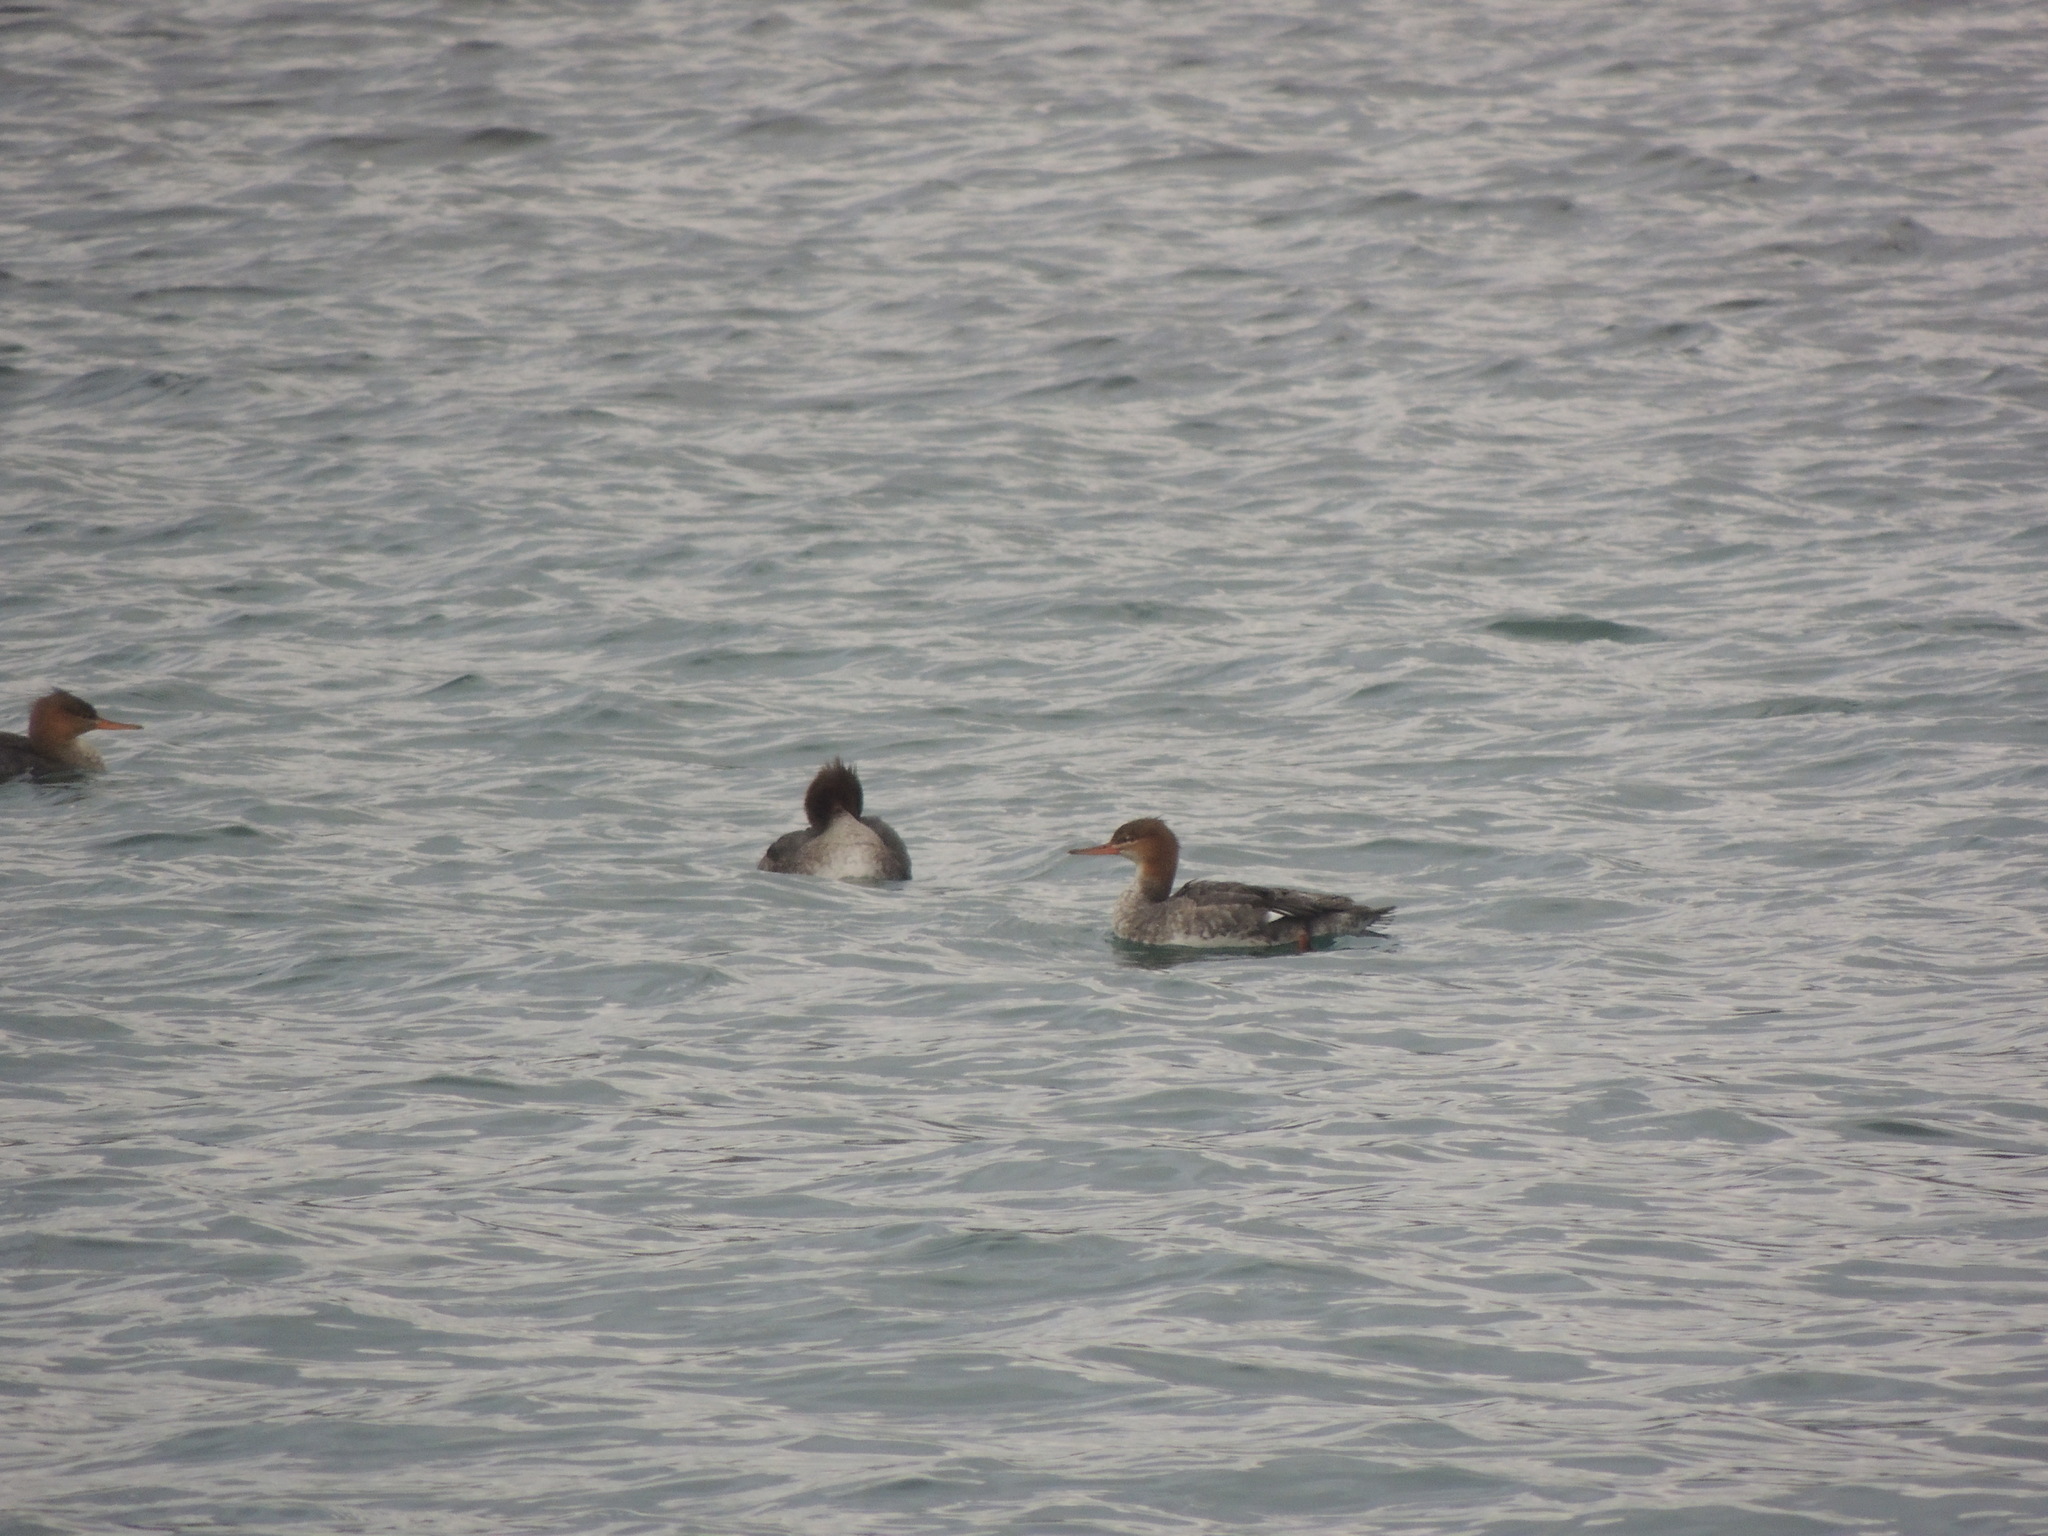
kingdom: Animalia
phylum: Chordata
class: Aves
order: Anseriformes
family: Anatidae
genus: Mergus
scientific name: Mergus serrator
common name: Red-breasted merganser
